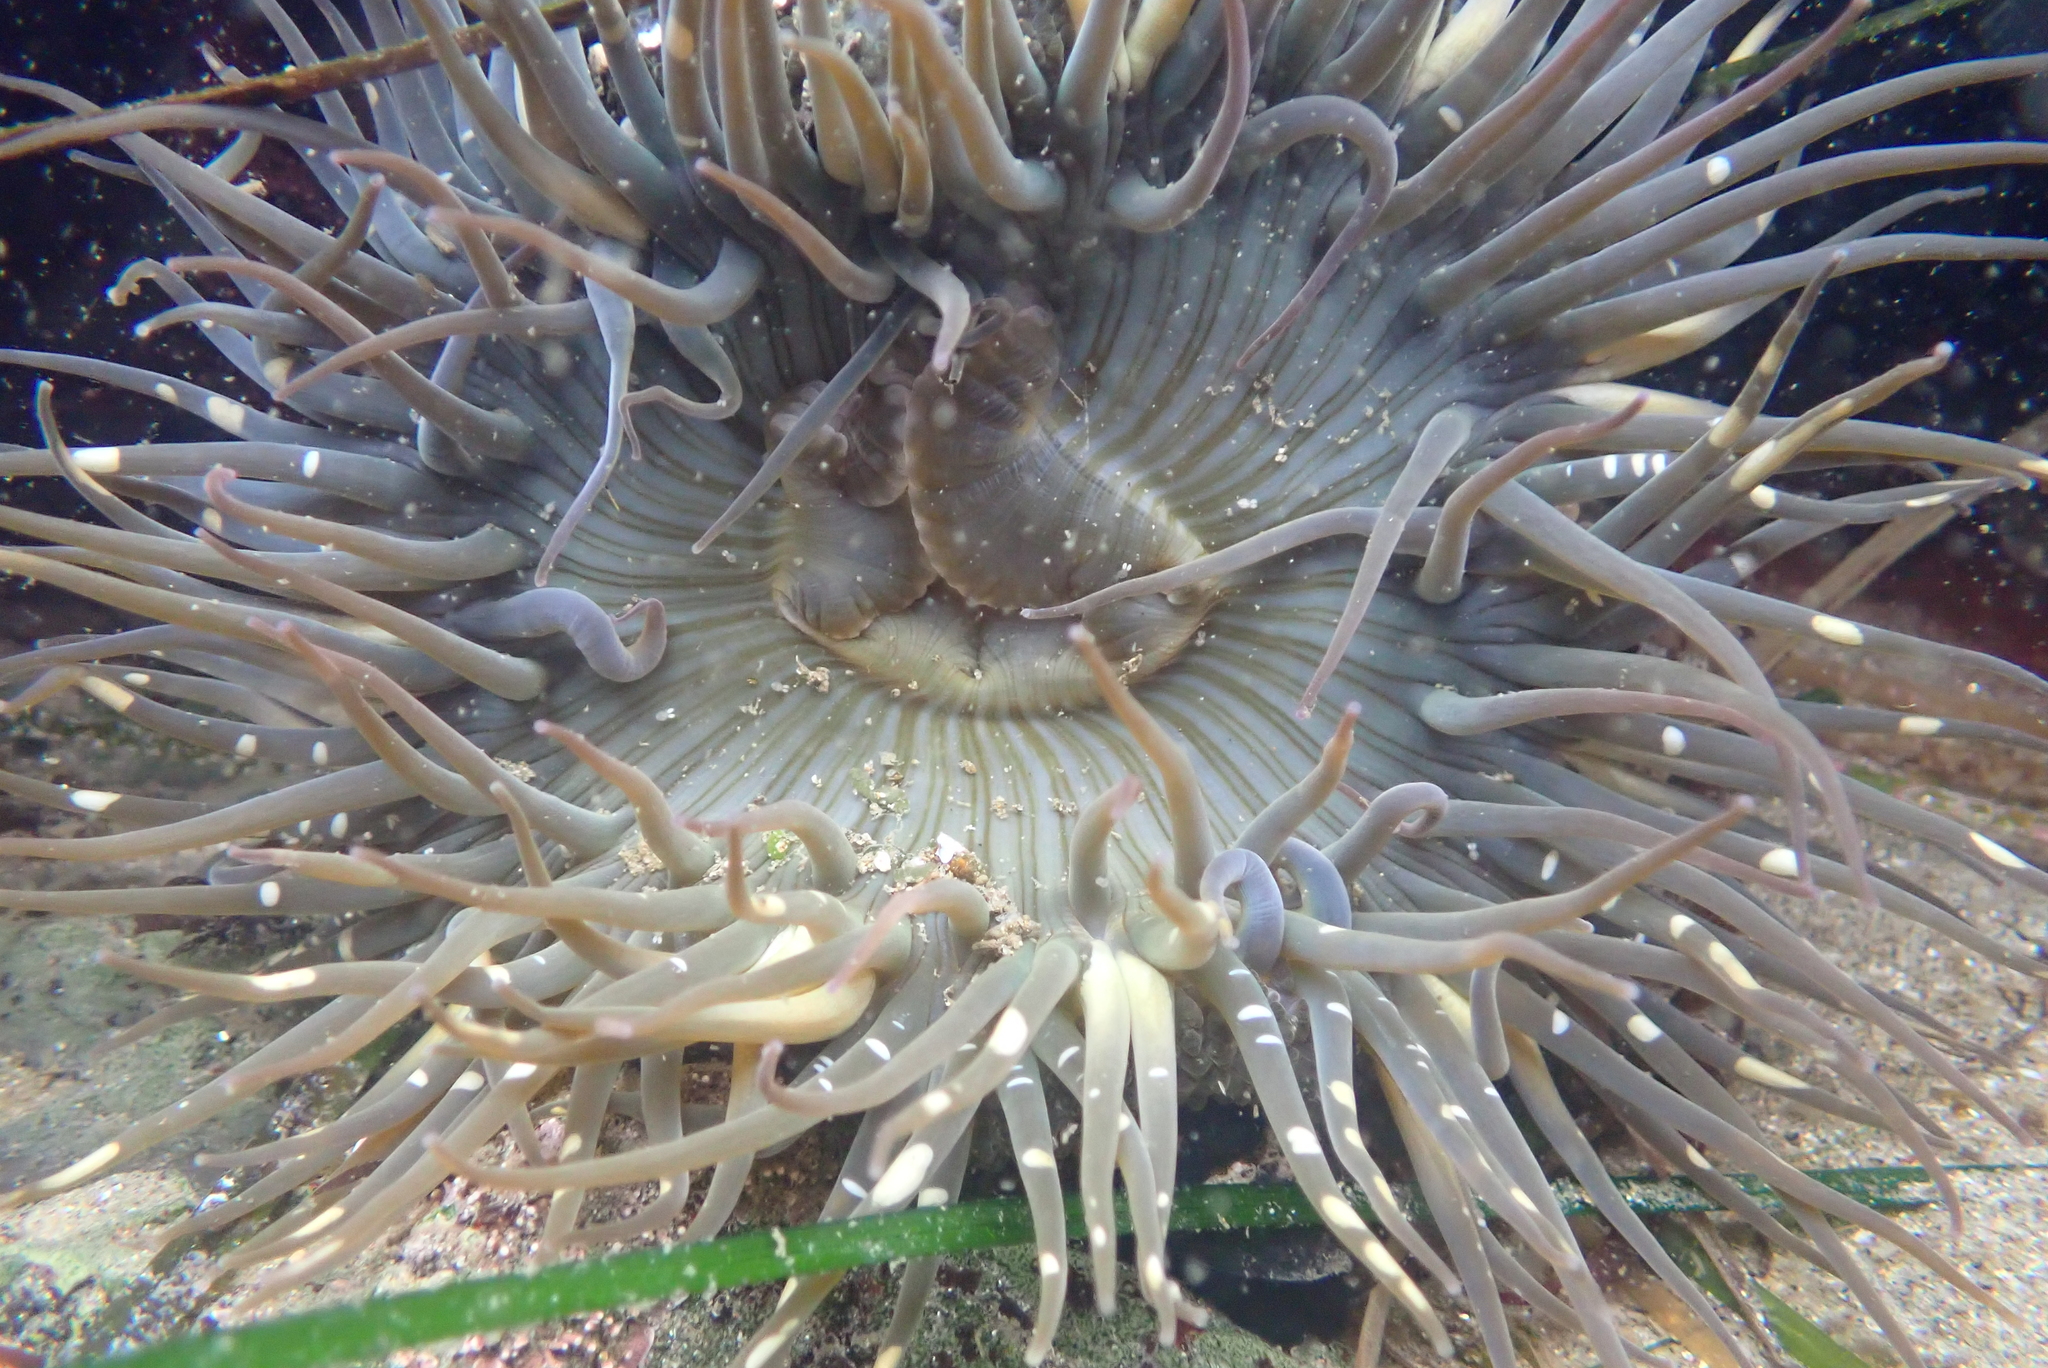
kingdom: Animalia
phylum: Cnidaria
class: Anthozoa
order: Actiniaria
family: Actiniidae
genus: Anthopleura
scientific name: Anthopleura sola
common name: Sun anemone
